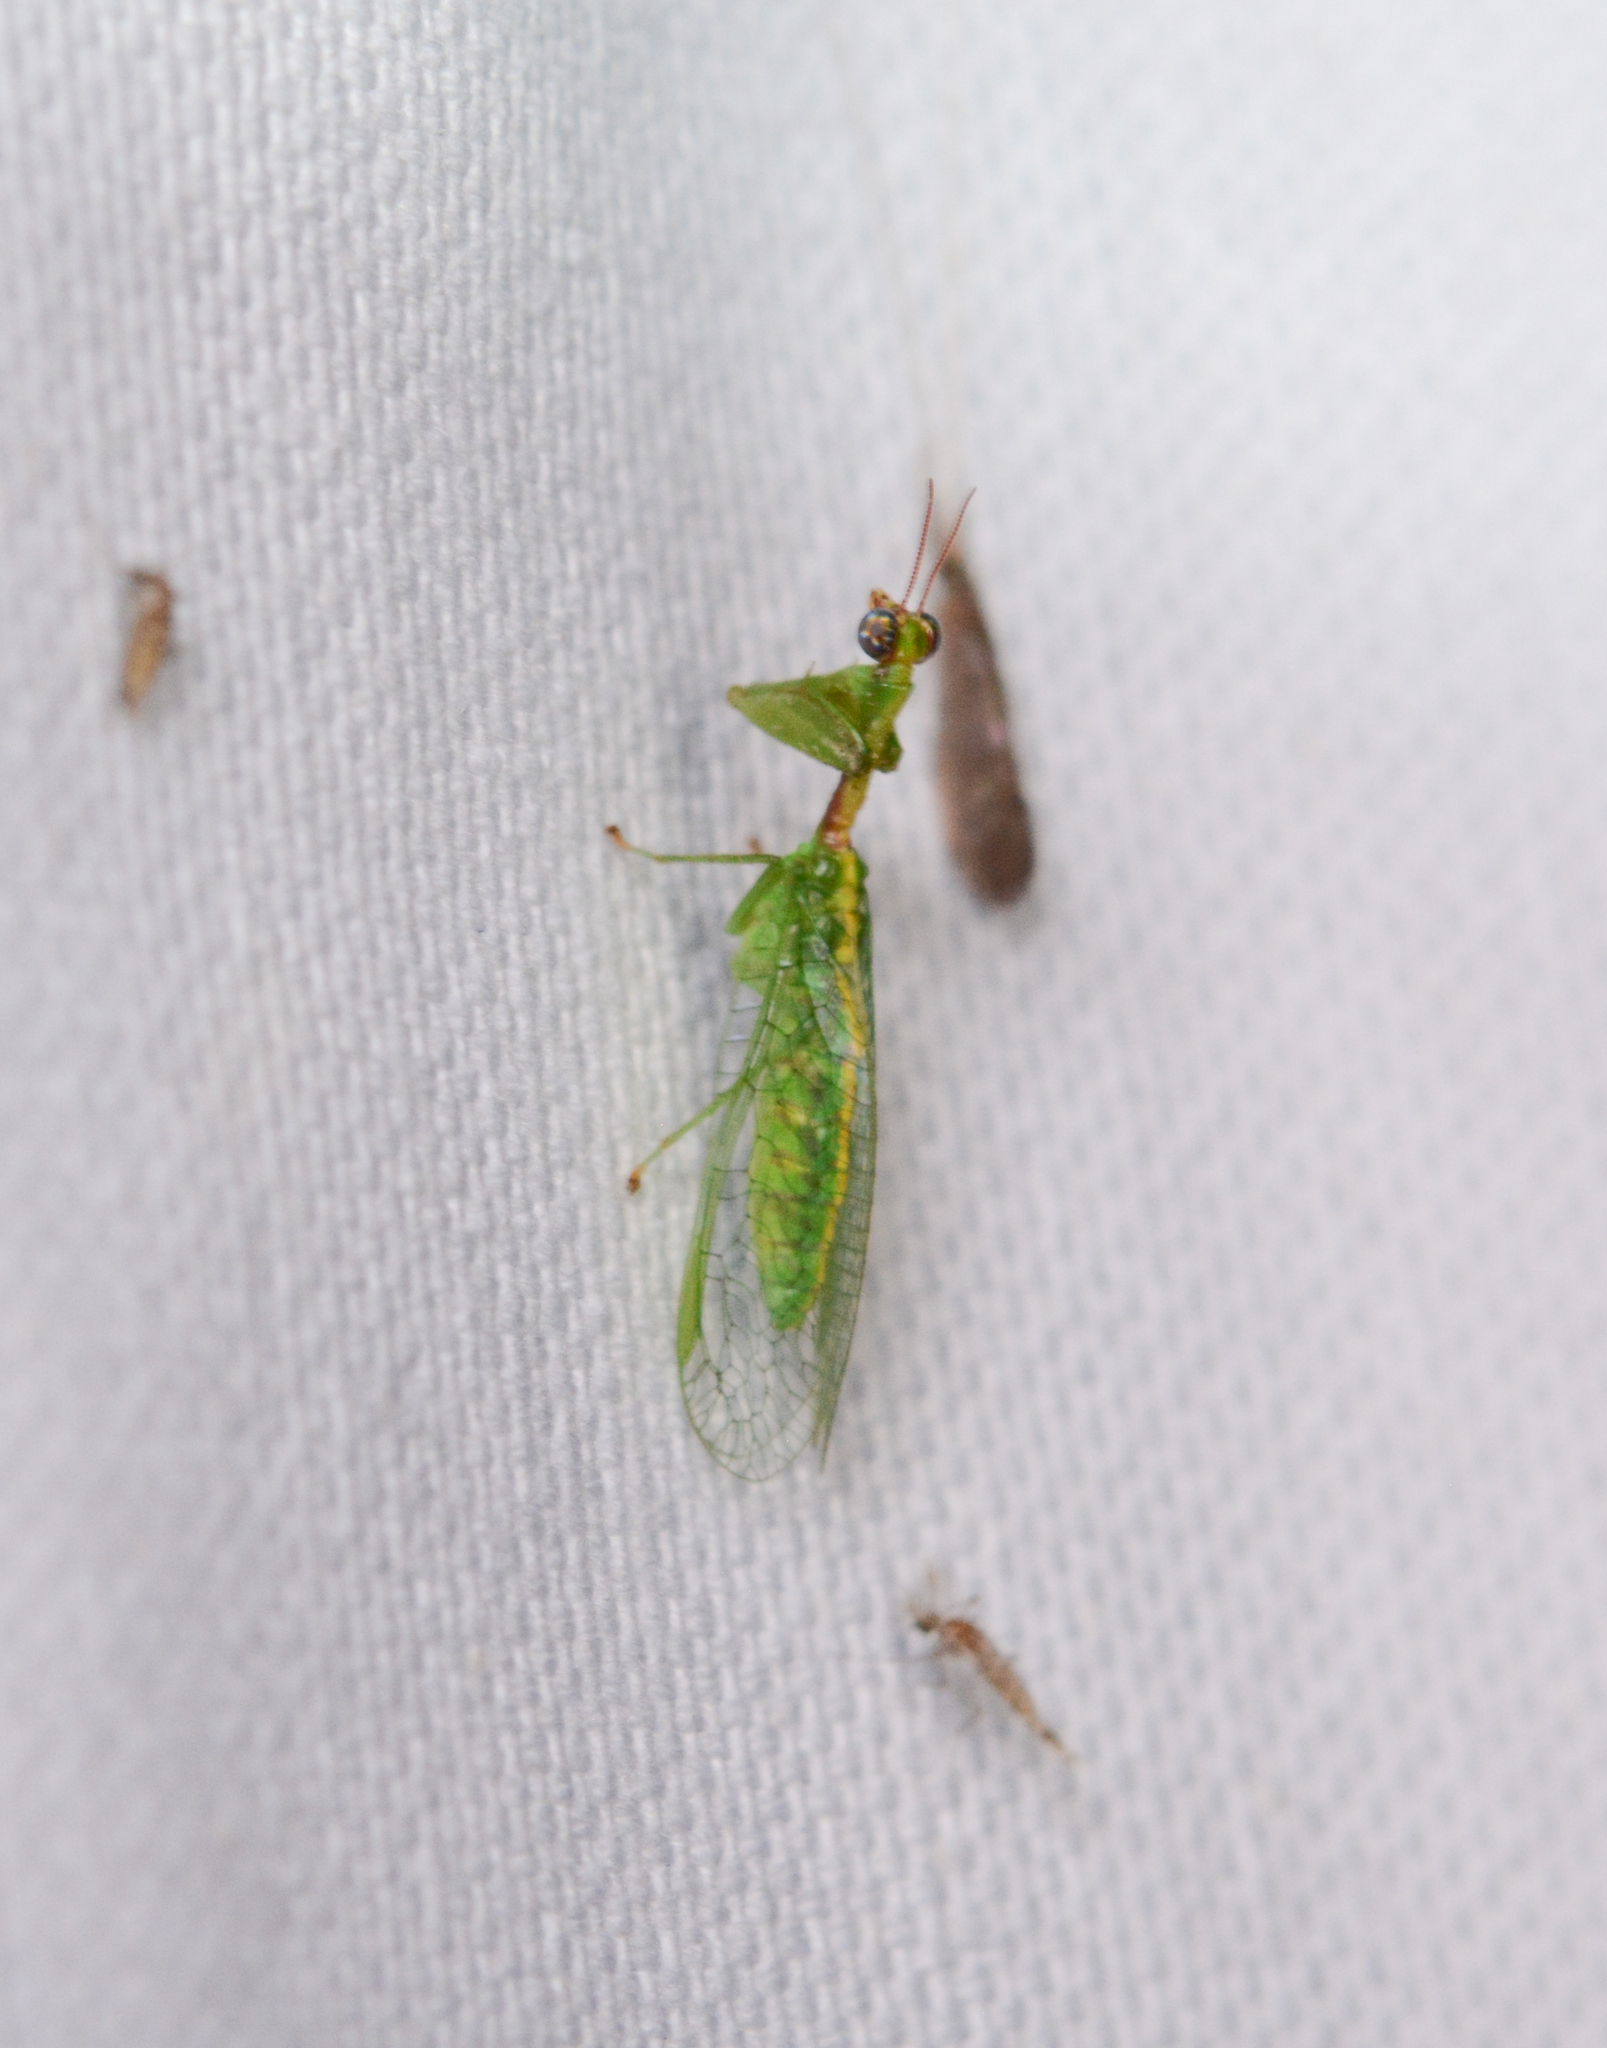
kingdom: Animalia
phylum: Arthropoda
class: Insecta
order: Neuroptera
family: Mantispidae
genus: Zeugomantispa
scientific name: Zeugomantispa minuta
